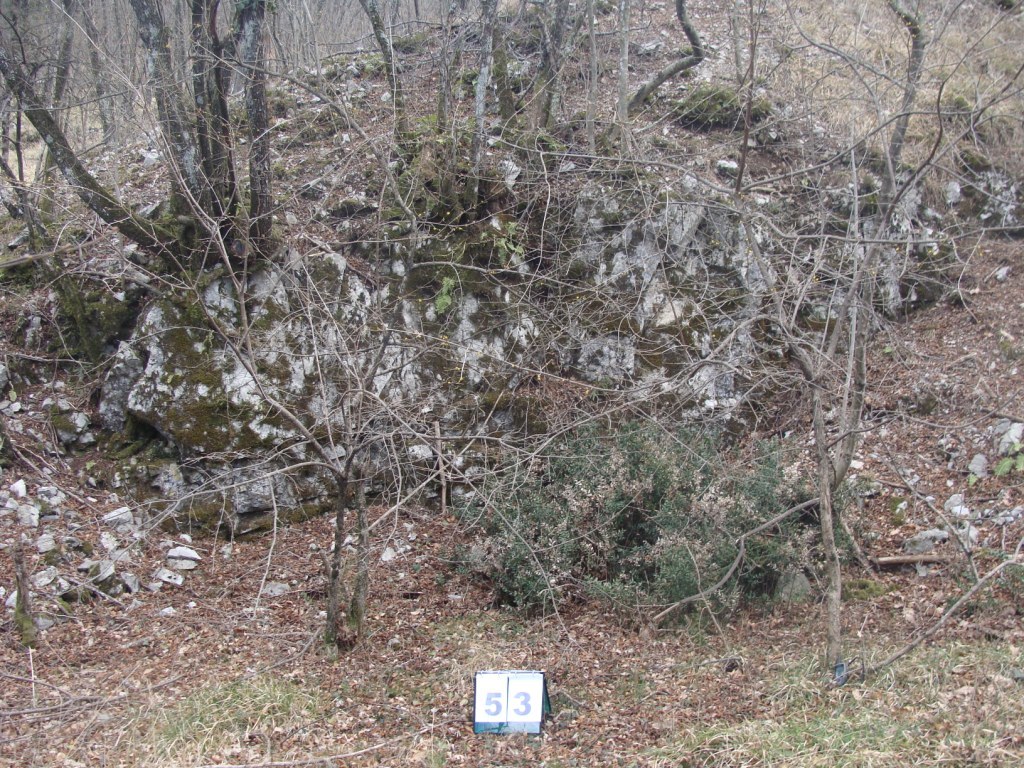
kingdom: Plantae
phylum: Tracheophyta
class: Magnoliopsida
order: Cornales
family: Cornaceae
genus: Cornus
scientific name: Cornus mas
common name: Cornelian-cherry
